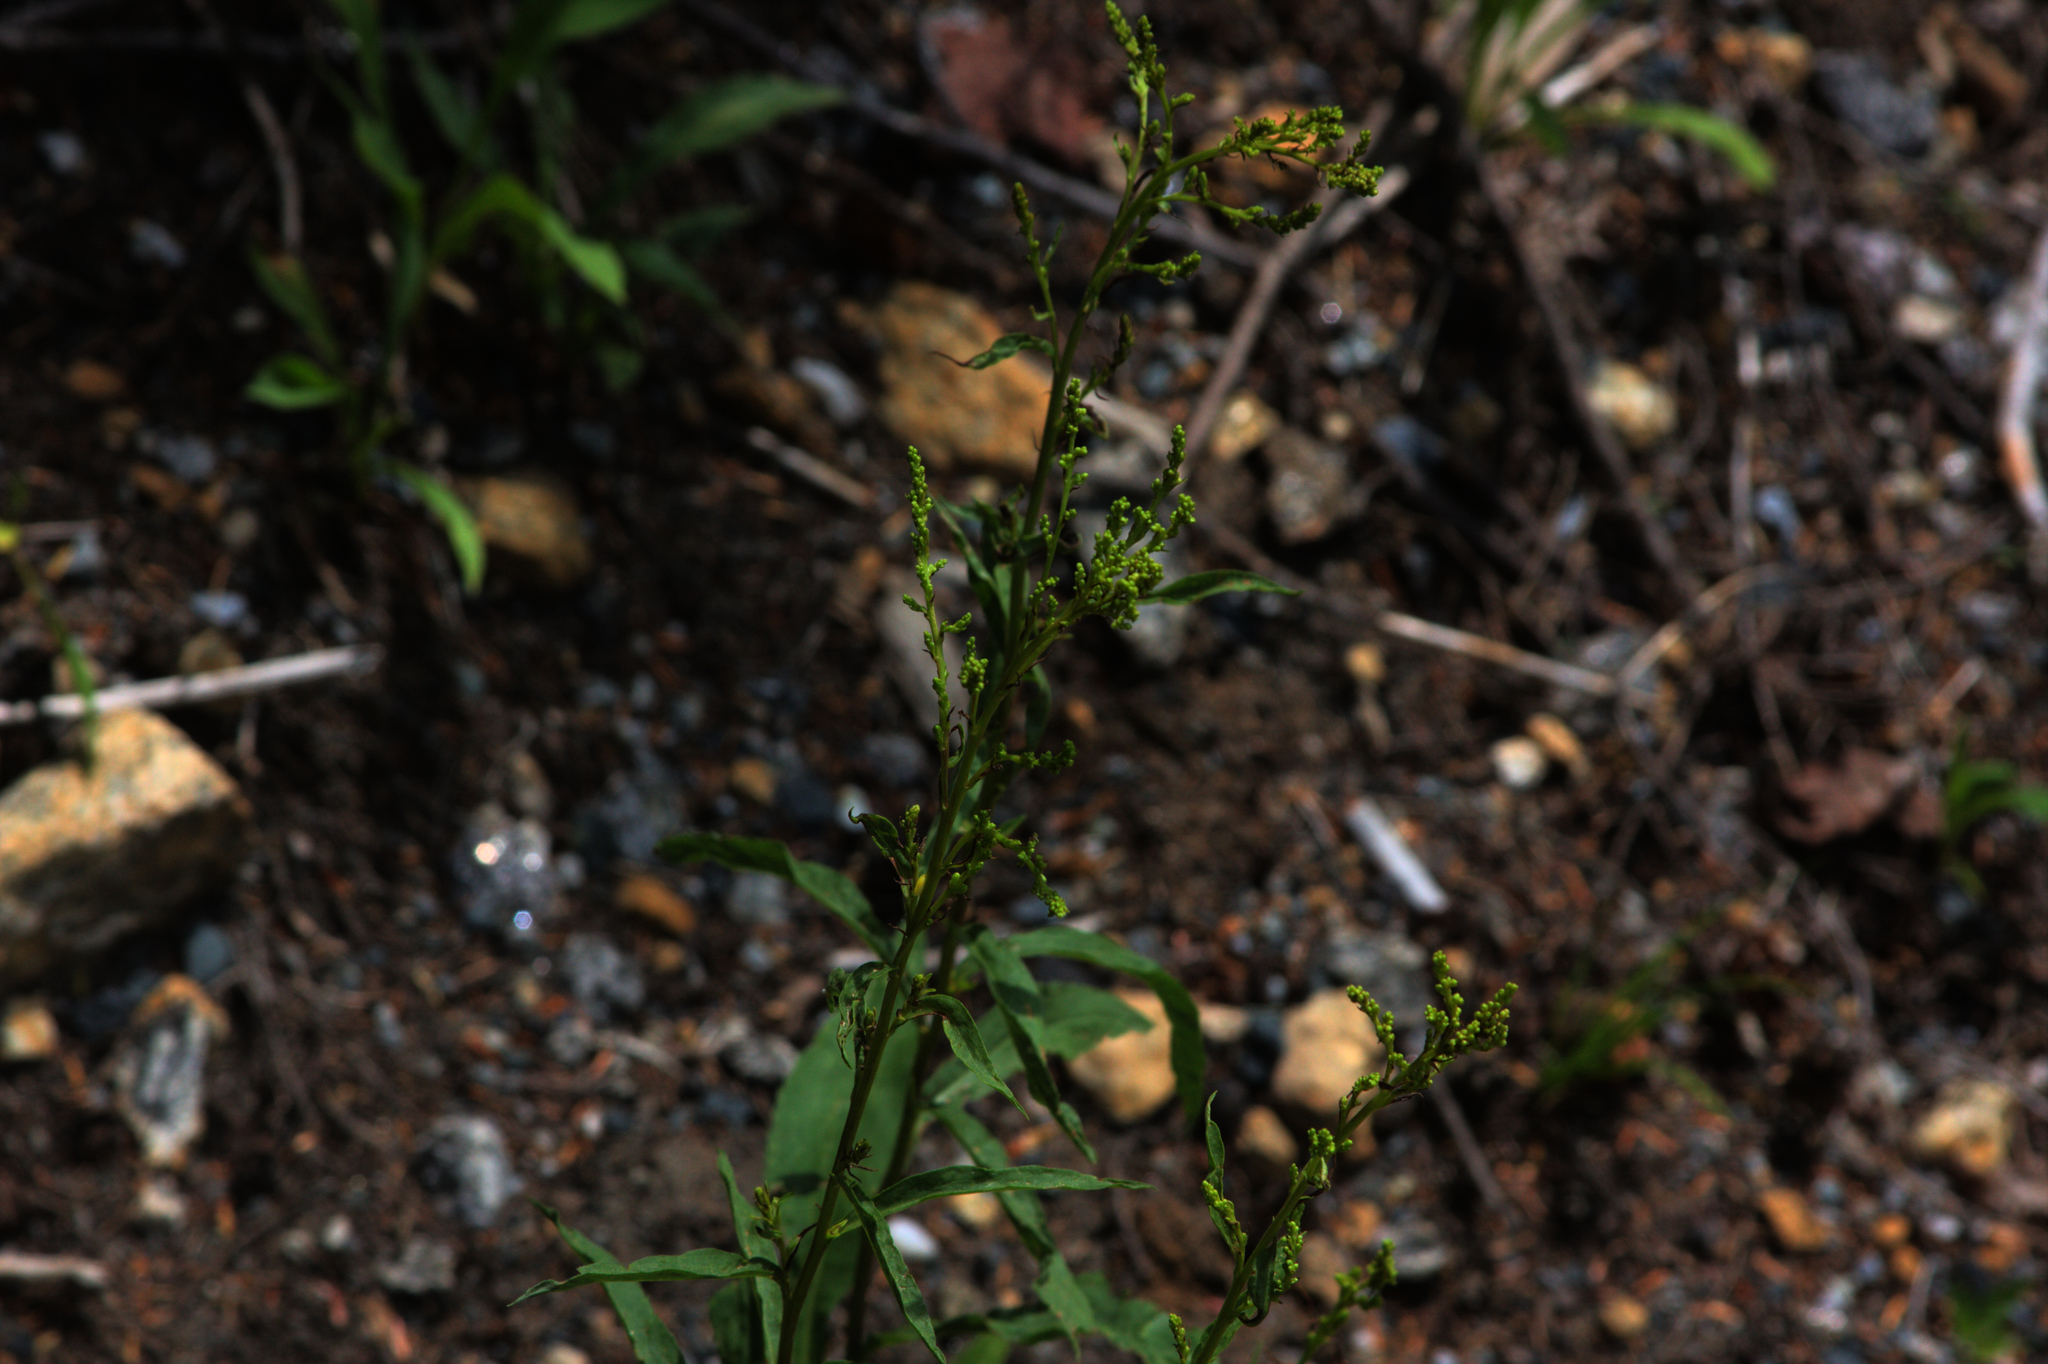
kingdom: Plantae
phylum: Tracheophyta
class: Magnoliopsida
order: Asterales
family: Asteraceae
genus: Solidago
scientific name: Solidago juncea
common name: Early goldenrod
